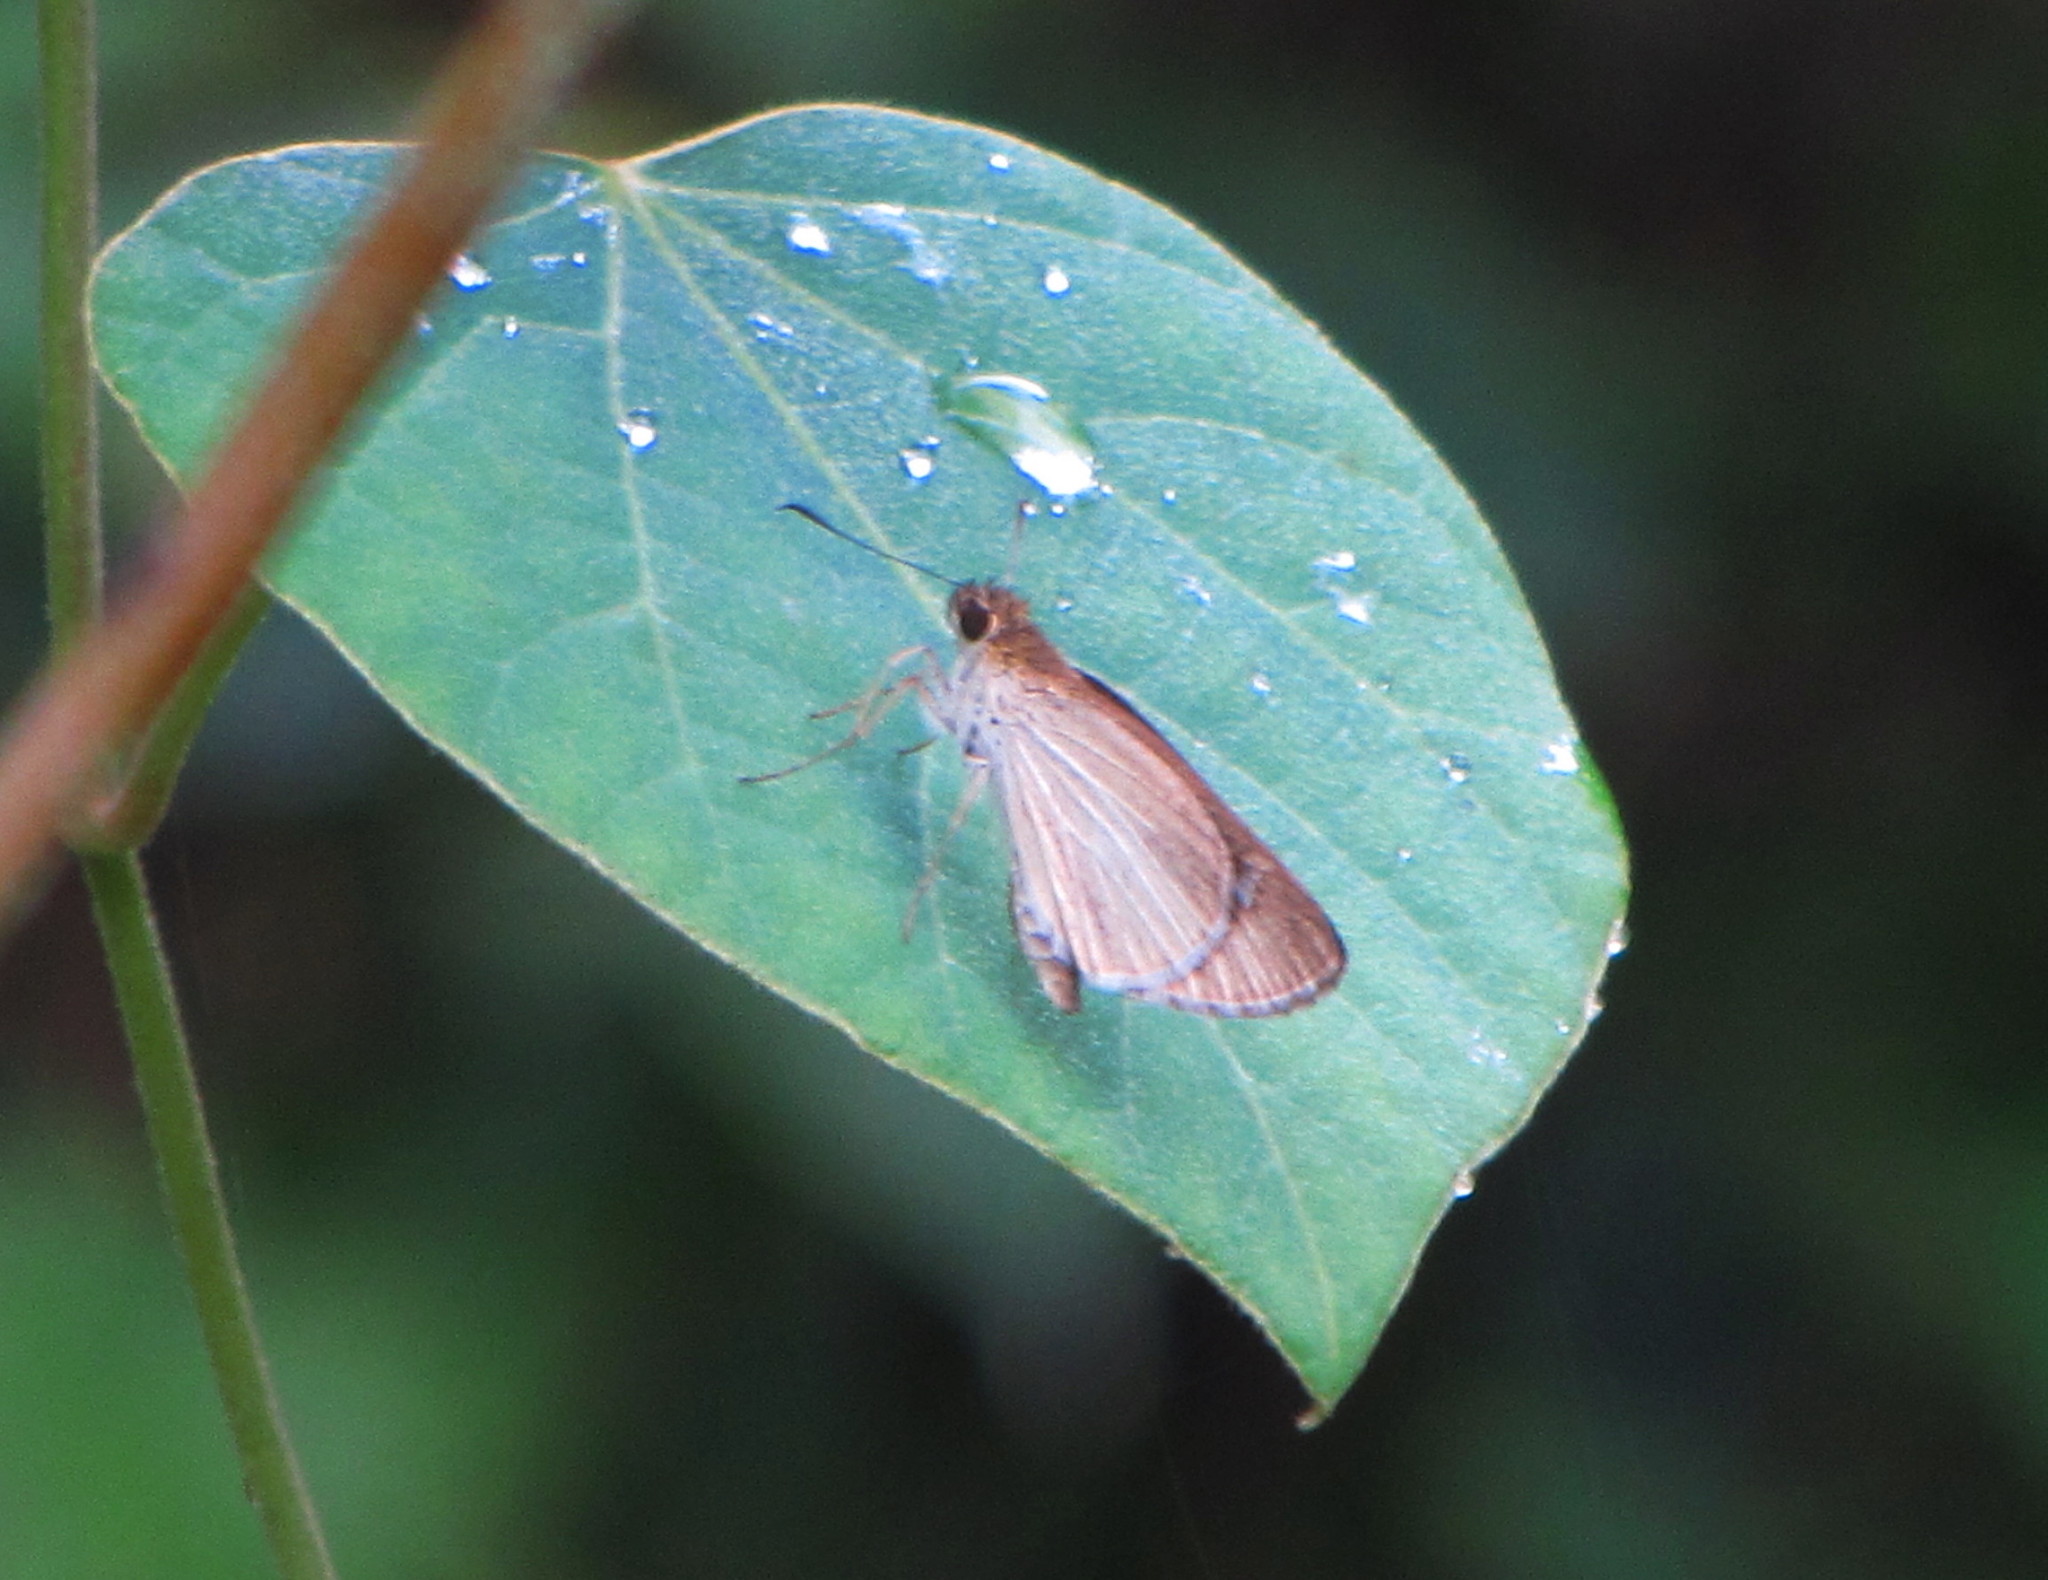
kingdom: Animalia
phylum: Arthropoda
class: Insecta
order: Lepidoptera
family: Hesperiidae
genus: Suada
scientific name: Suada swerga
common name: Grass bob
